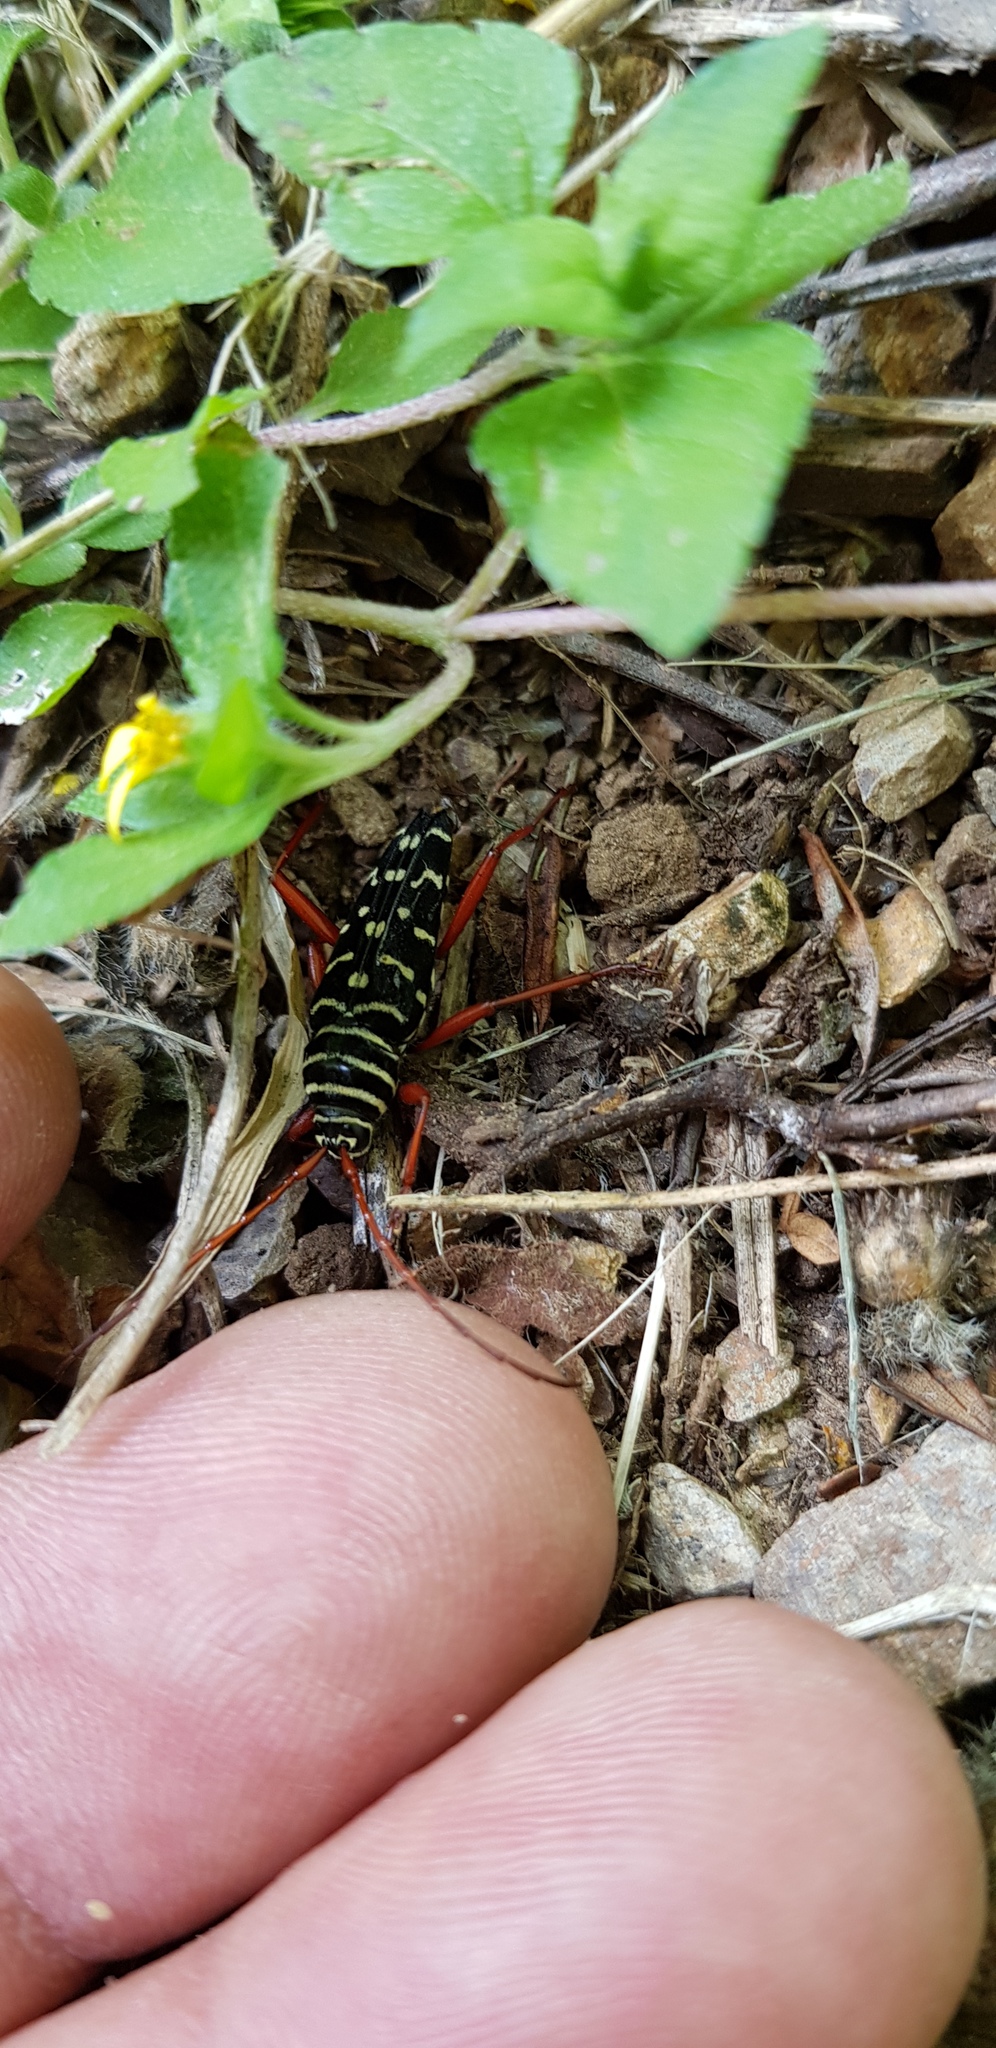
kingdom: Animalia
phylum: Arthropoda
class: Insecta
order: Coleoptera
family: Cerambycidae
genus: Placosternus
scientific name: Placosternus erythropus
